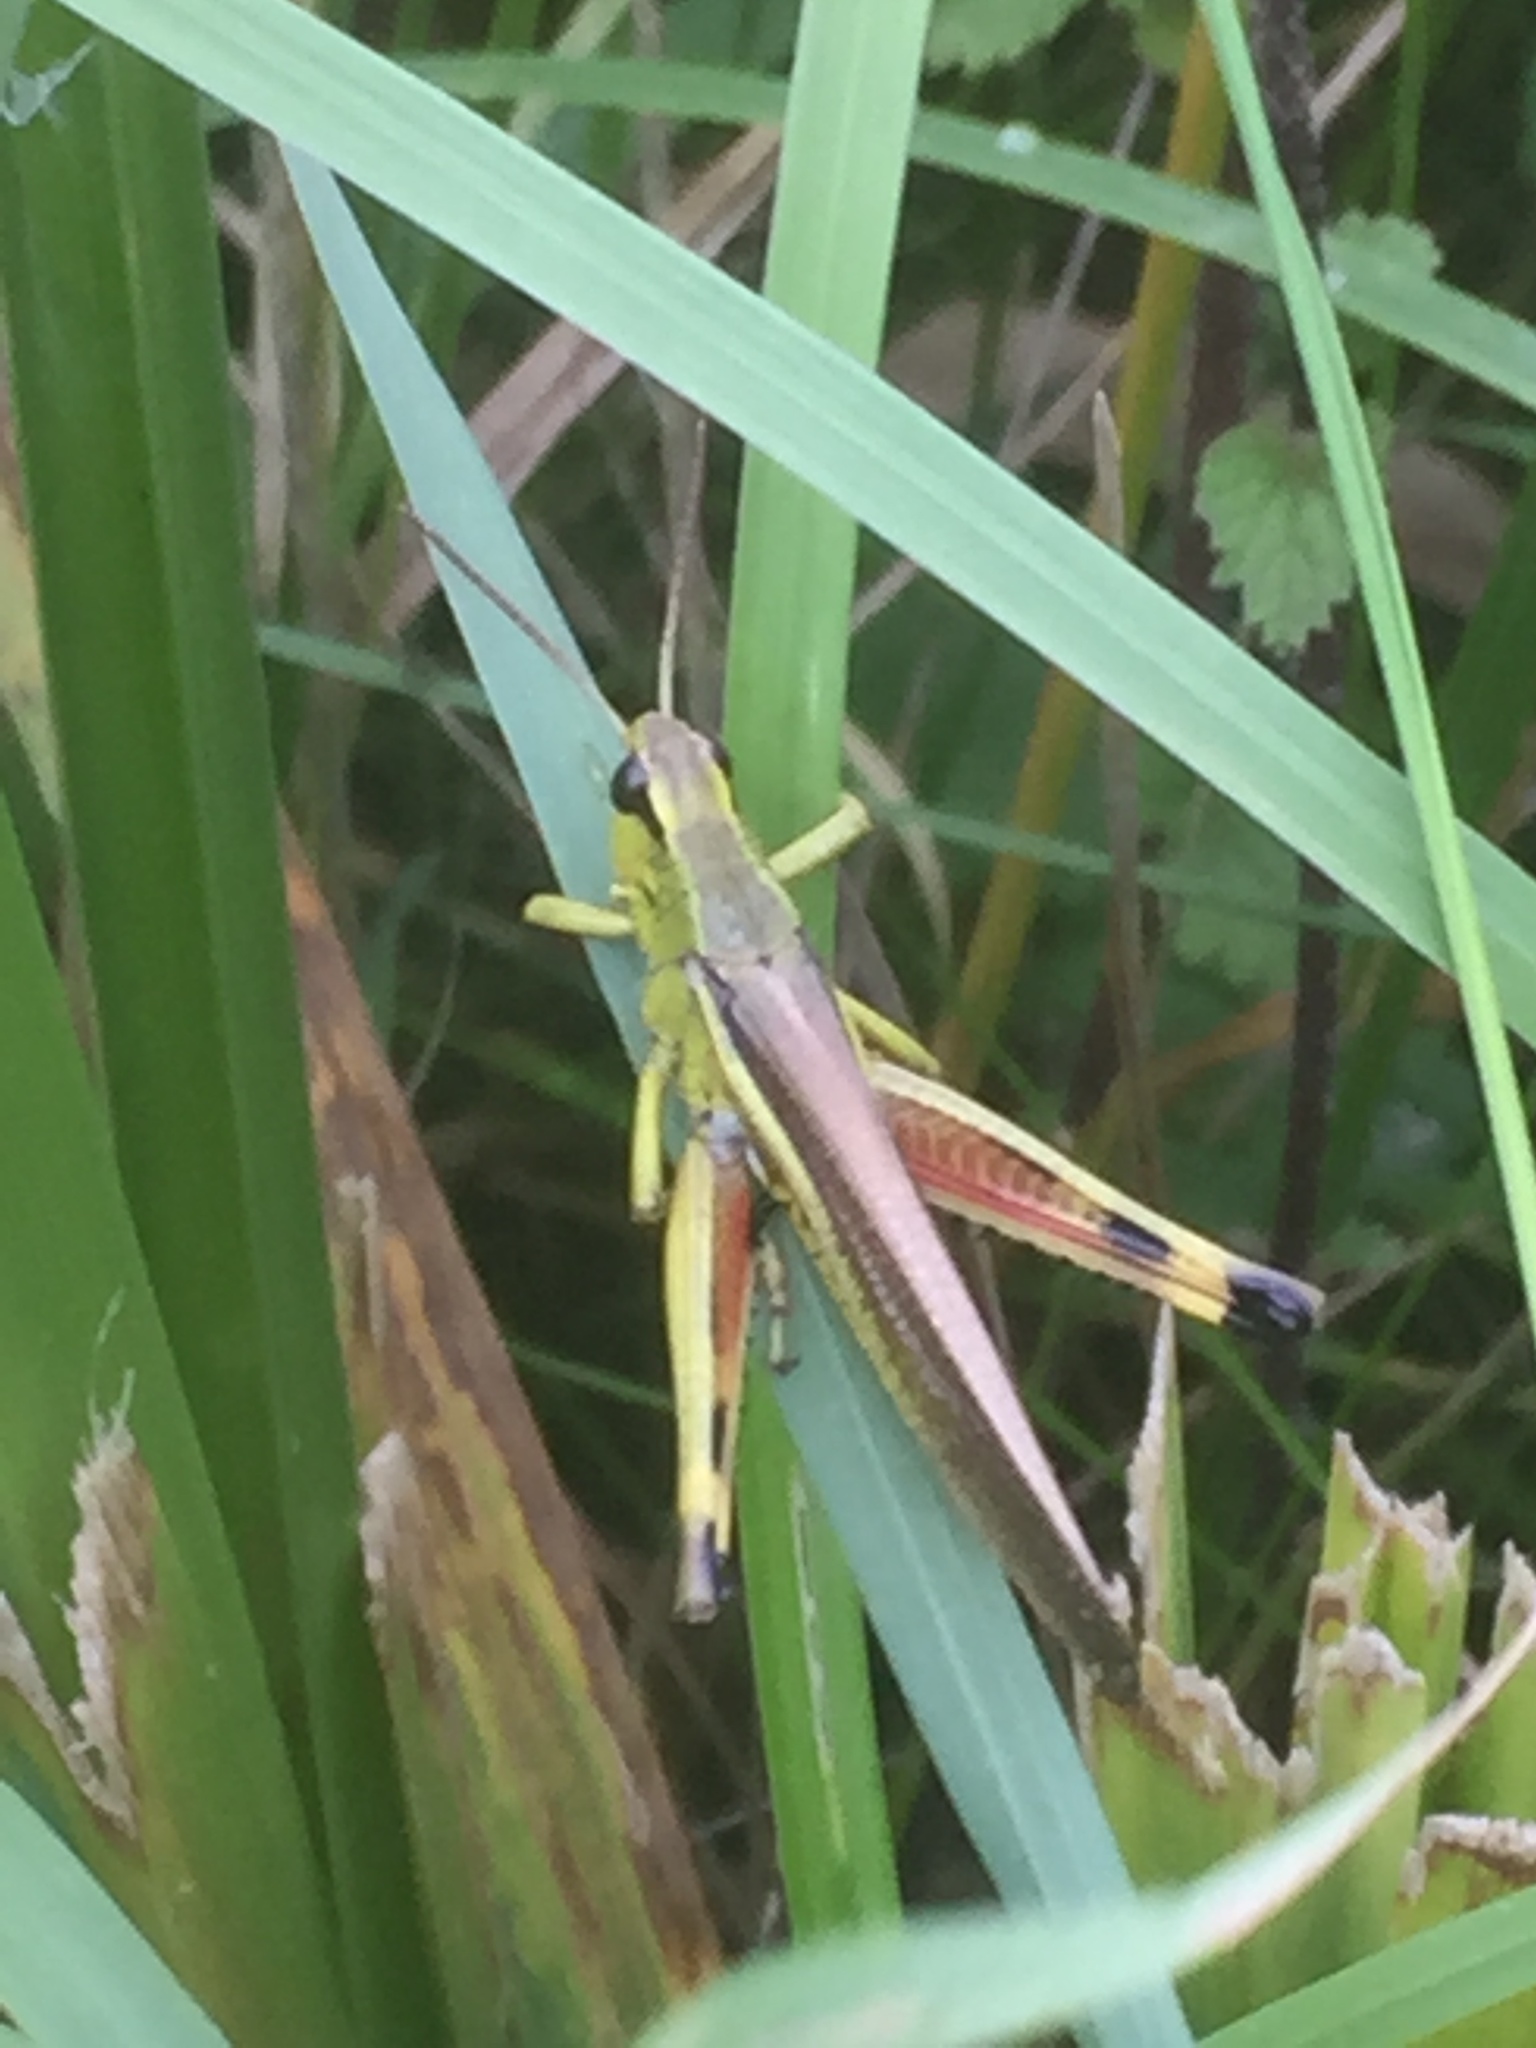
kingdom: Animalia
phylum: Arthropoda
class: Insecta
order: Orthoptera
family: Acrididae
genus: Stethophyma
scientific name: Stethophyma grossum
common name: Large marsh grasshopper
